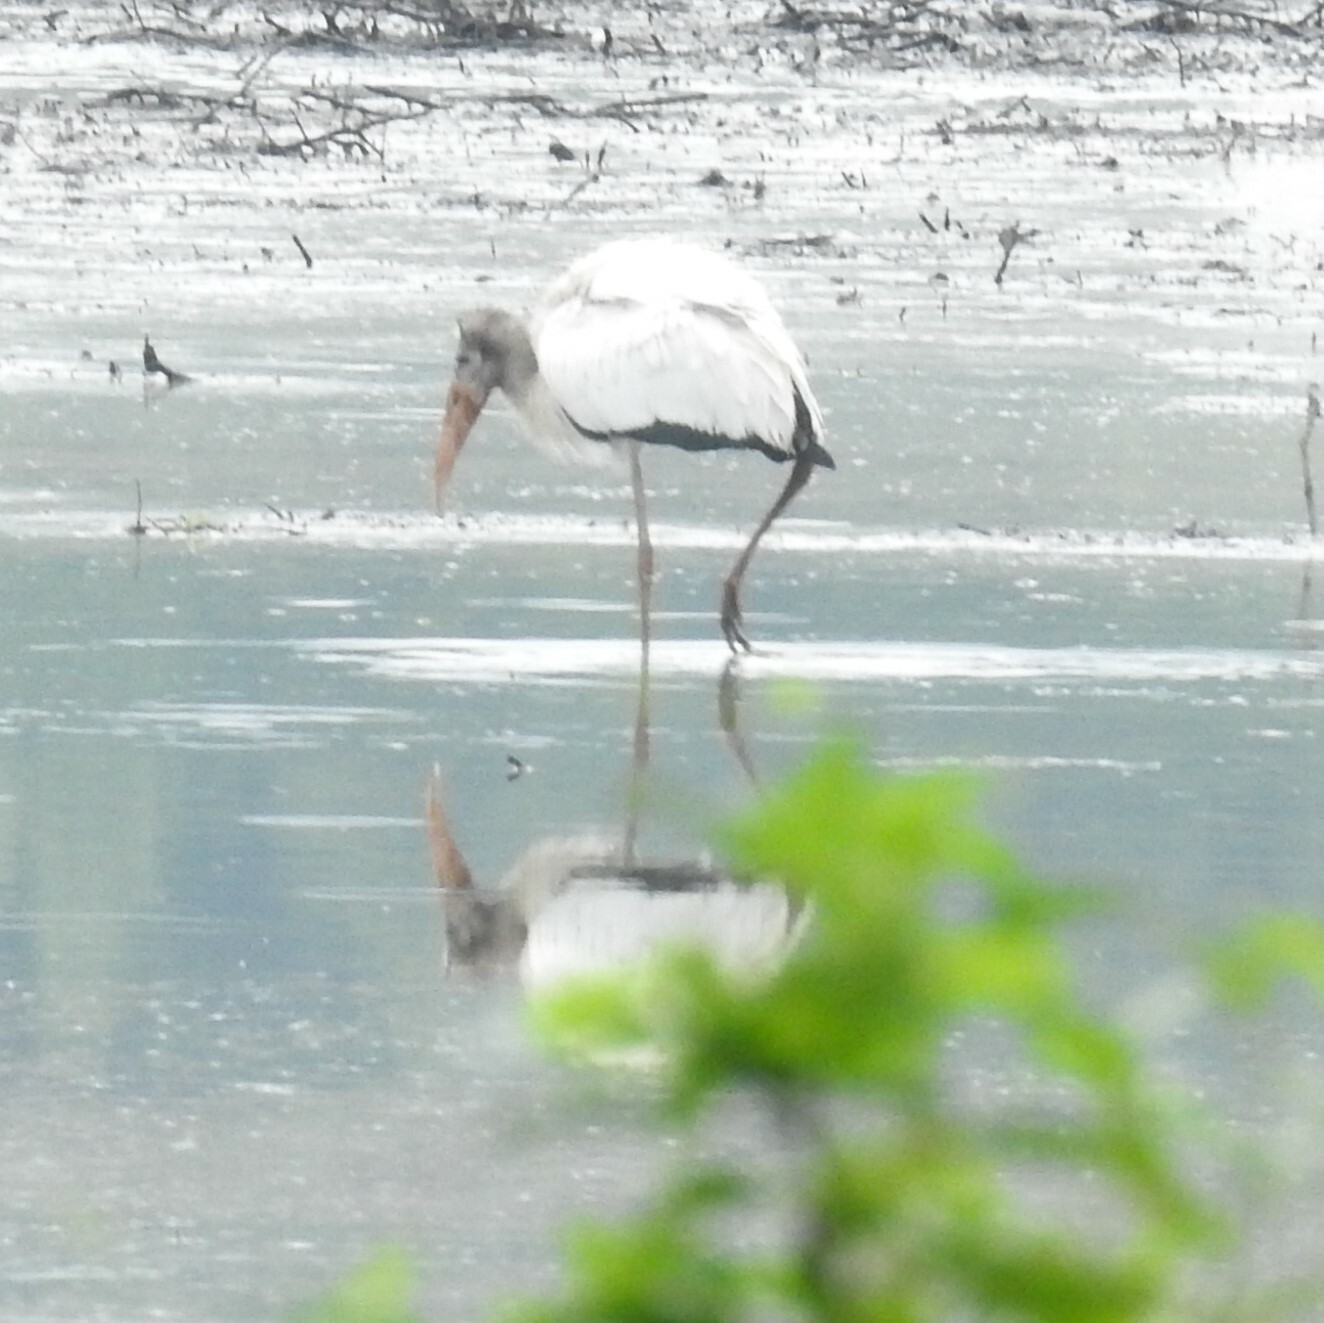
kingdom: Animalia
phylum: Chordata
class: Aves
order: Ciconiiformes
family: Ciconiidae
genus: Mycteria
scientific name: Mycteria americana
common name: Wood stork
